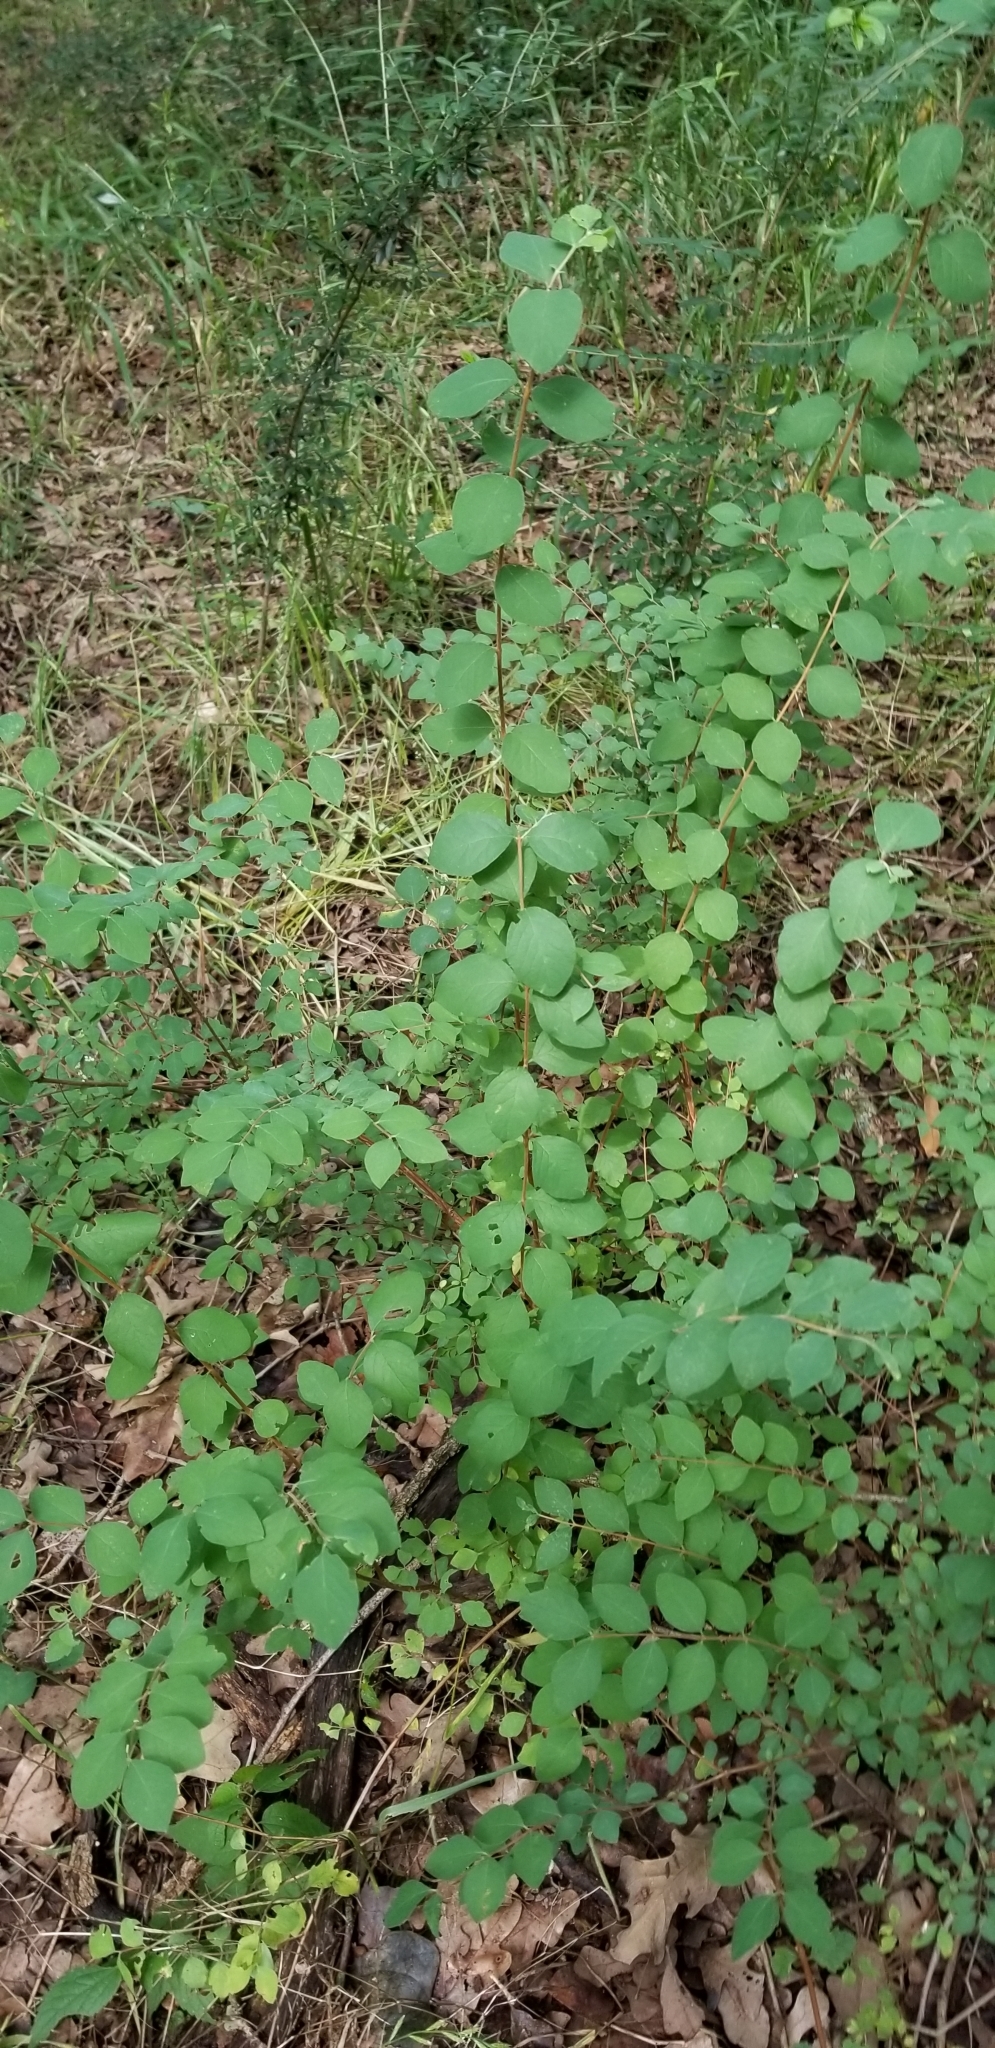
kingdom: Plantae
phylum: Tracheophyta
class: Magnoliopsida
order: Dipsacales
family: Caprifoliaceae
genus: Symphoricarpos
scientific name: Symphoricarpos orbiculatus
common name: Coralberry
